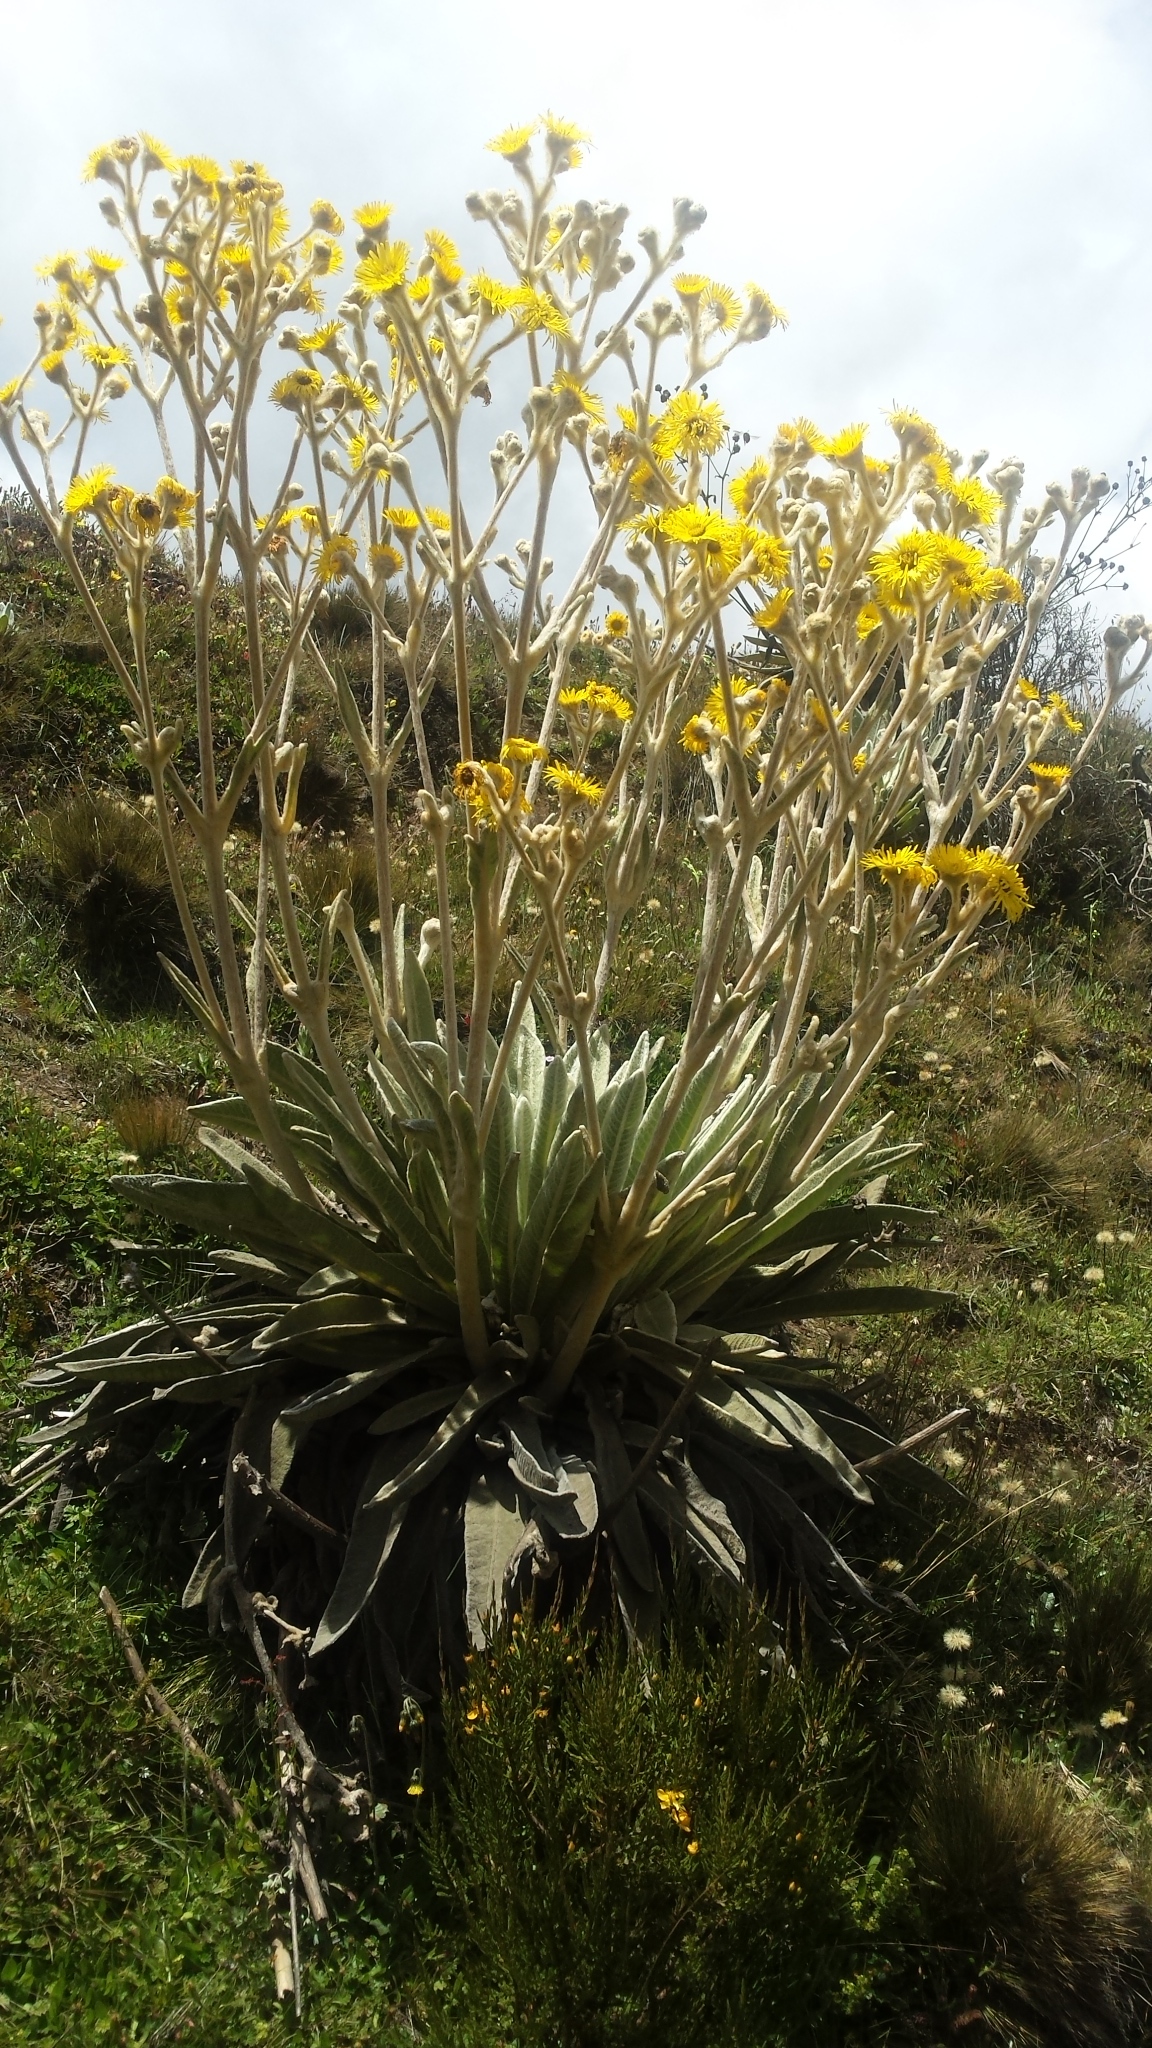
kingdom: Plantae
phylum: Tracheophyta
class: Magnoliopsida
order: Asterales
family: Asteraceae
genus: Espeletia
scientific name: Espeletia schultzii
